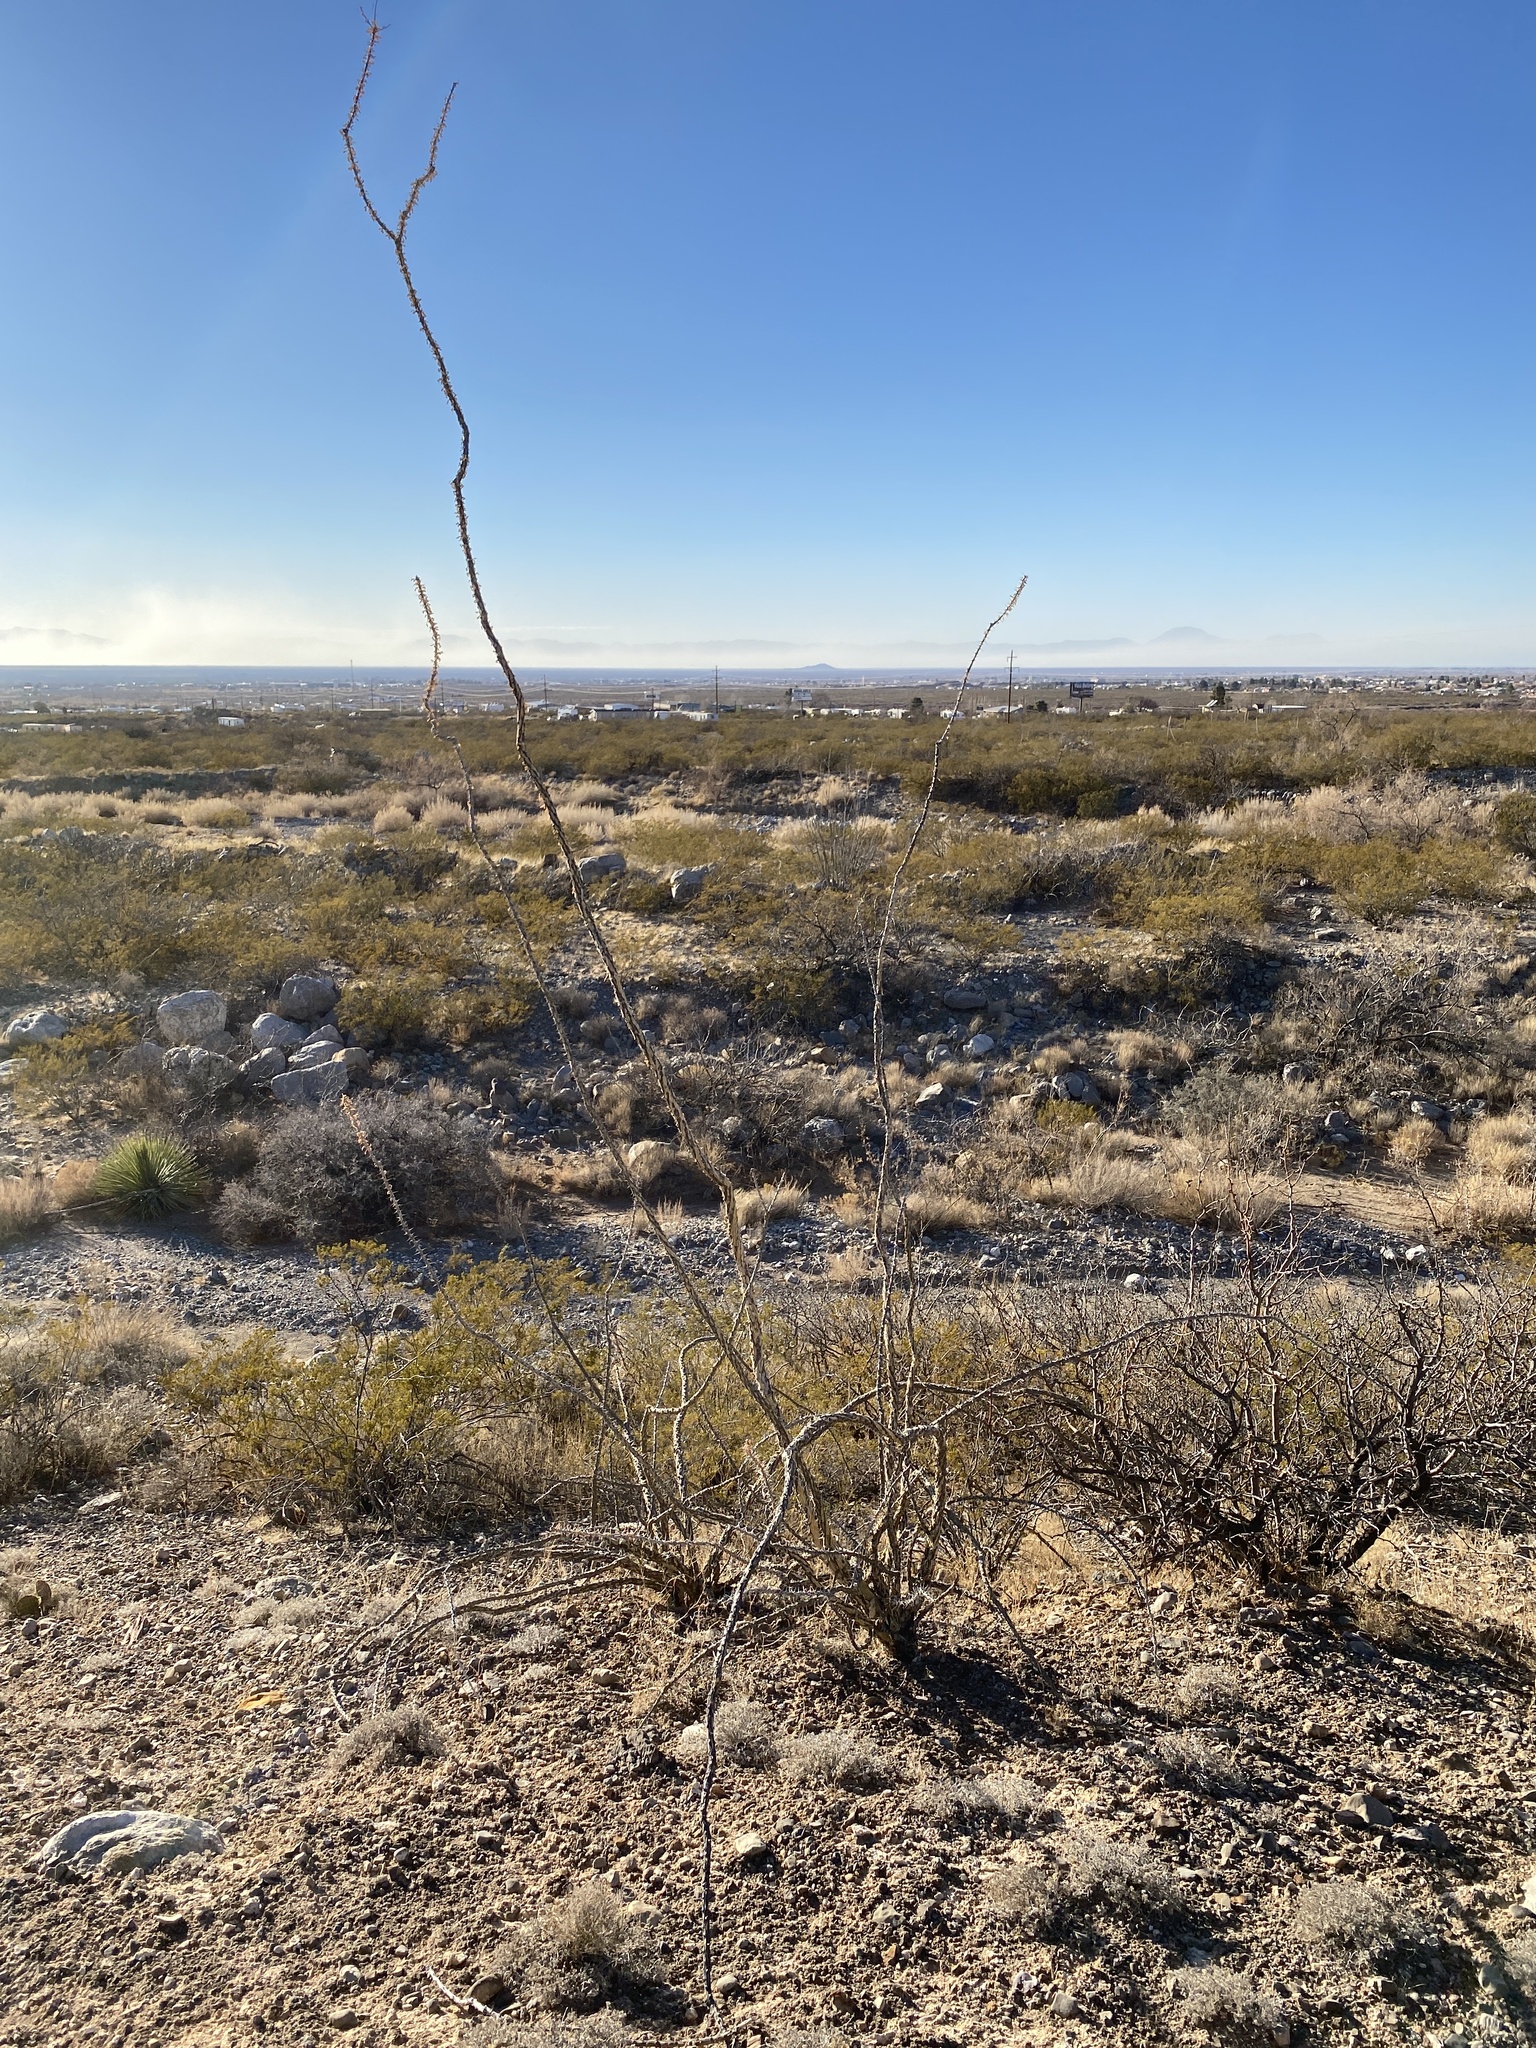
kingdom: Plantae
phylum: Tracheophyta
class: Magnoliopsida
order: Ericales
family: Fouquieriaceae
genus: Fouquieria
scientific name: Fouquieria splendens
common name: Vine-cactus
